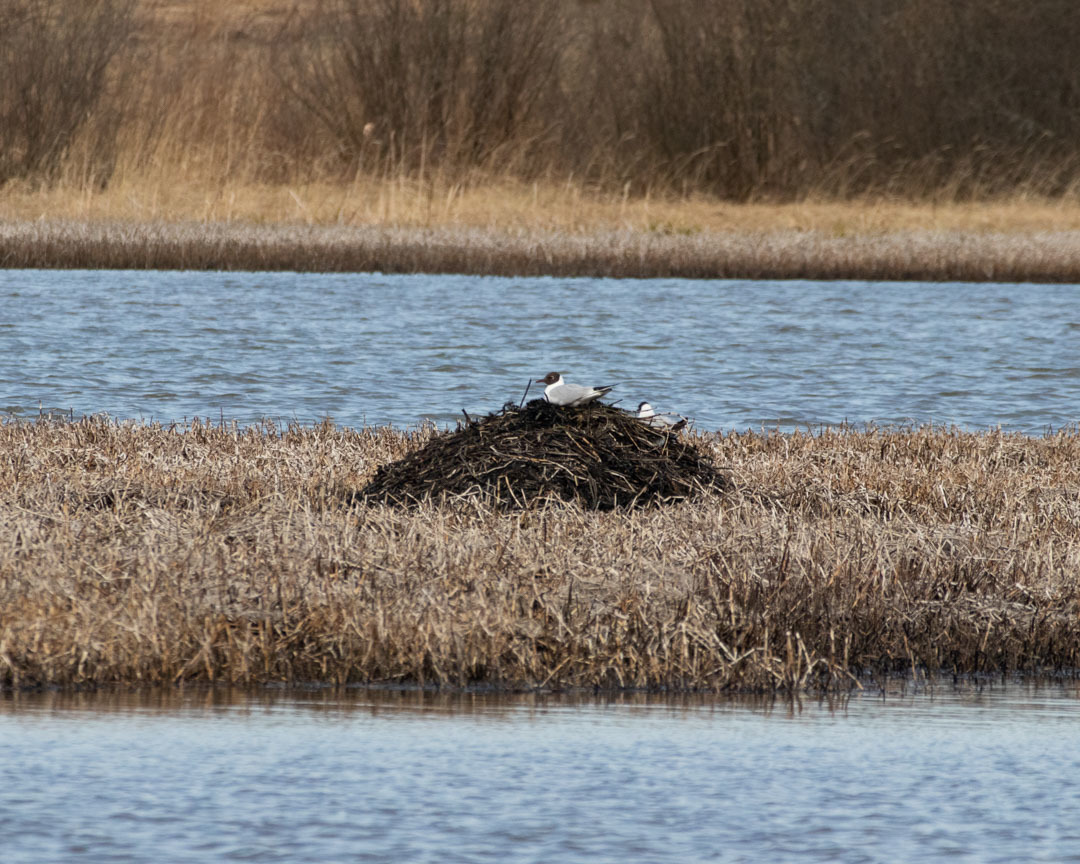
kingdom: Animalia
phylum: Chordata
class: Aves
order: Charadriiformes
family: Laridae
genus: Chroicocephalus
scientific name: Chroicocephalus ridibundus
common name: Black-headed gull
